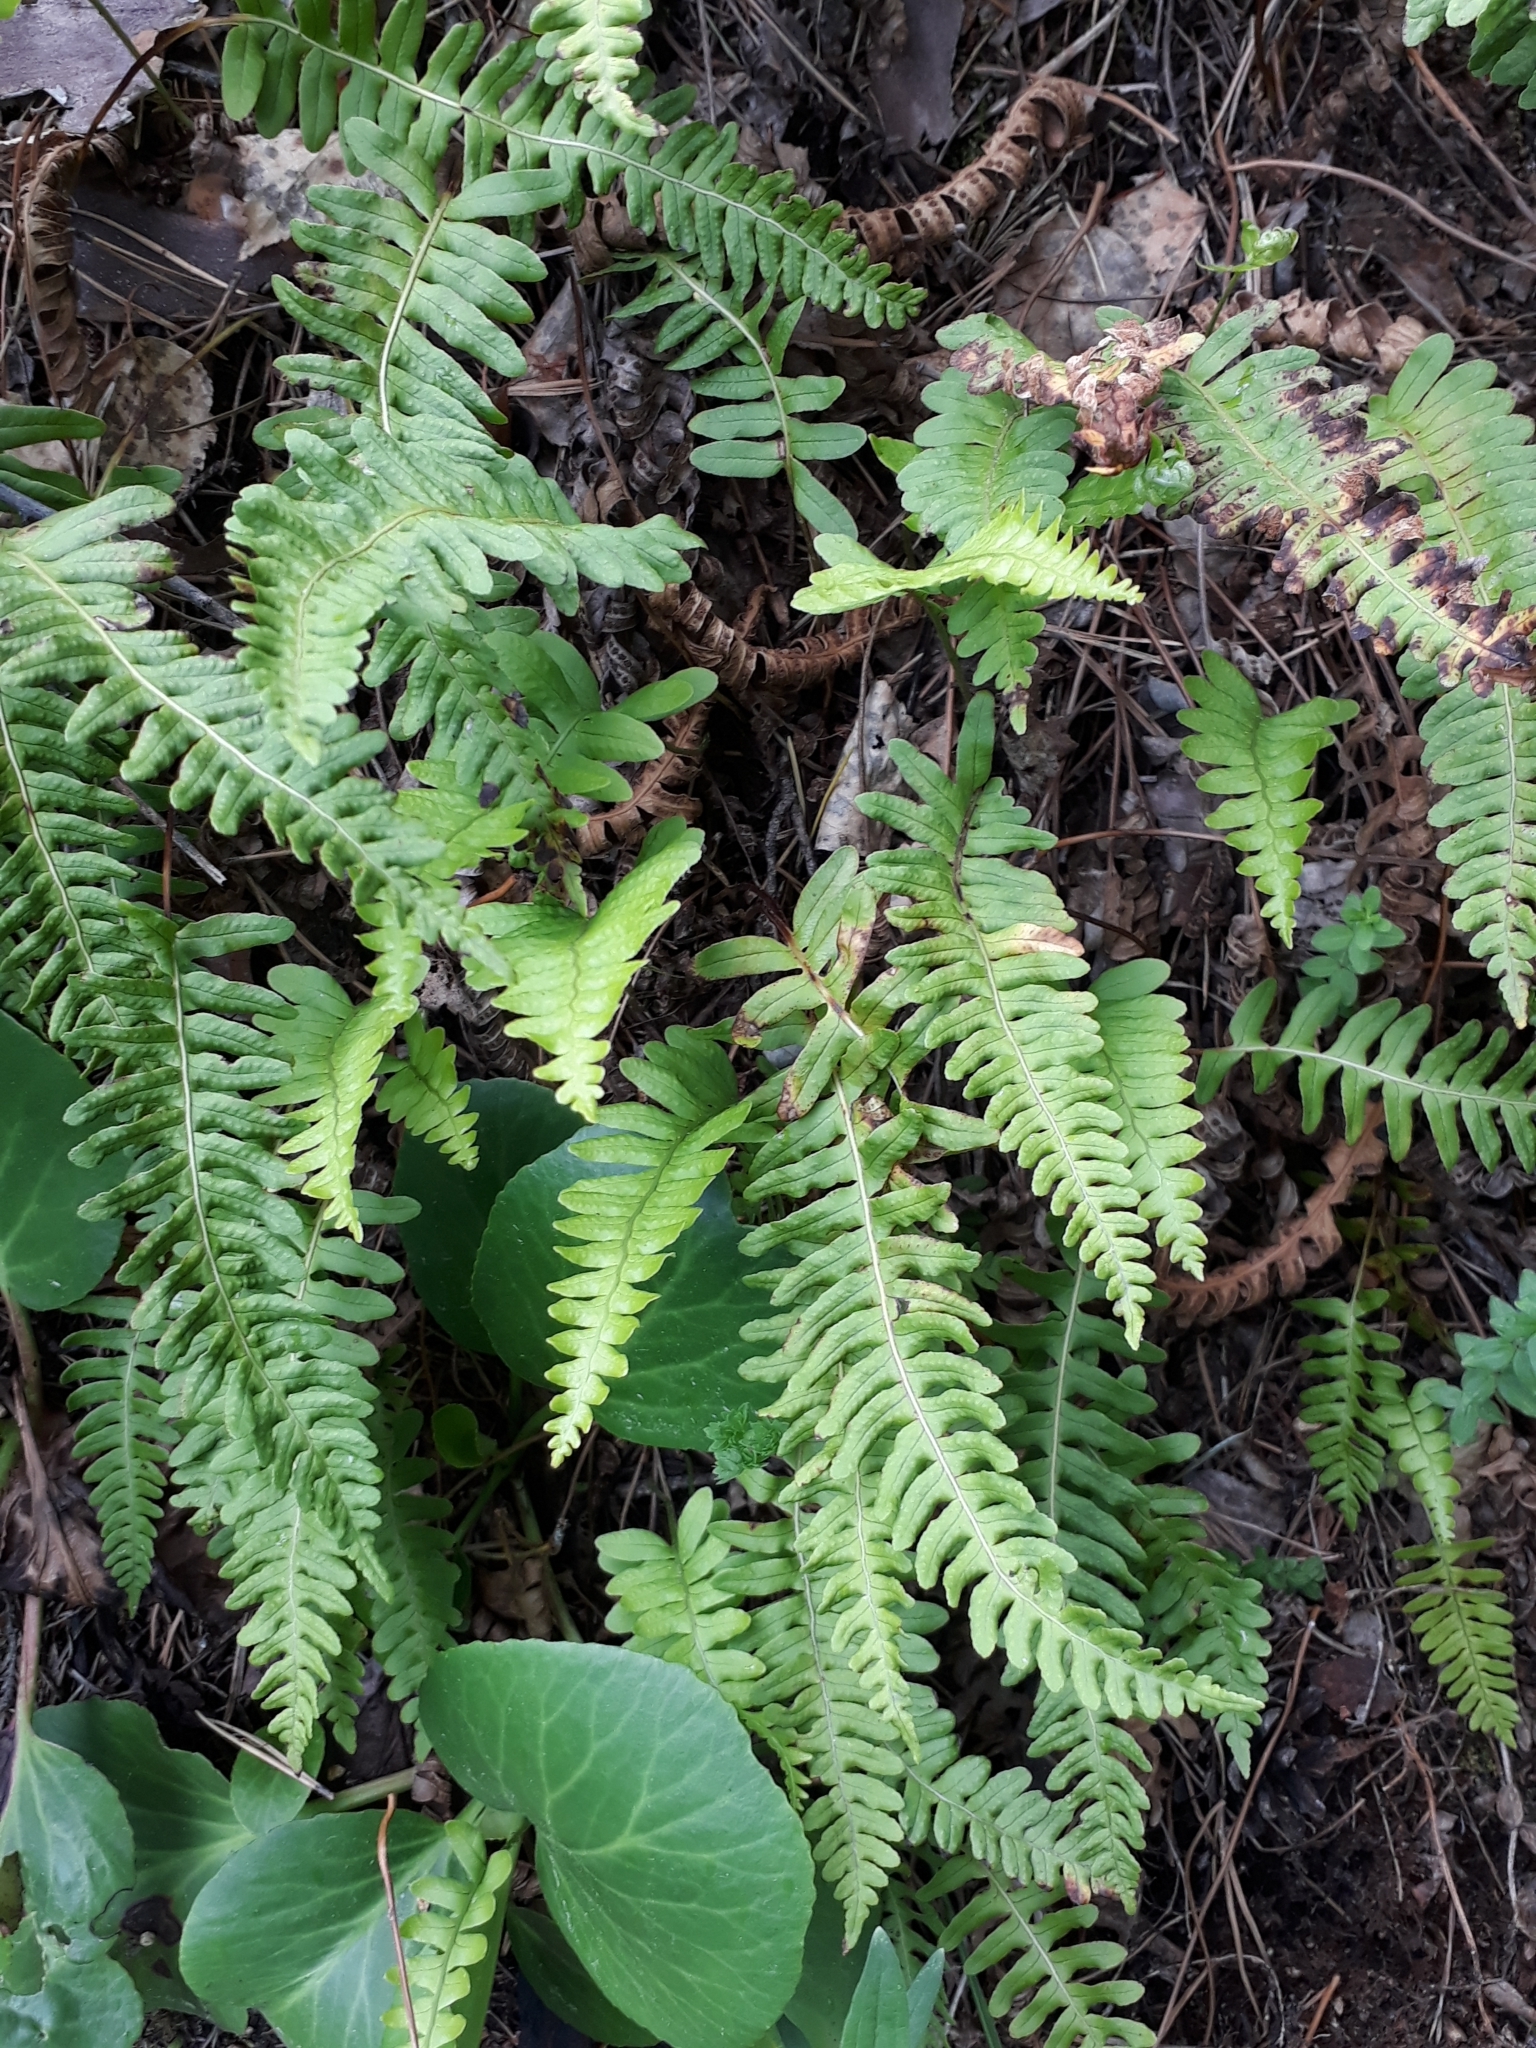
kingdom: Plantae
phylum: Tracheophyta
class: Polypodiopsida
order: Polypodiales
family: Polypodiaceae
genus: Polypodium
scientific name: Polypodium vulgare
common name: Common polypody
